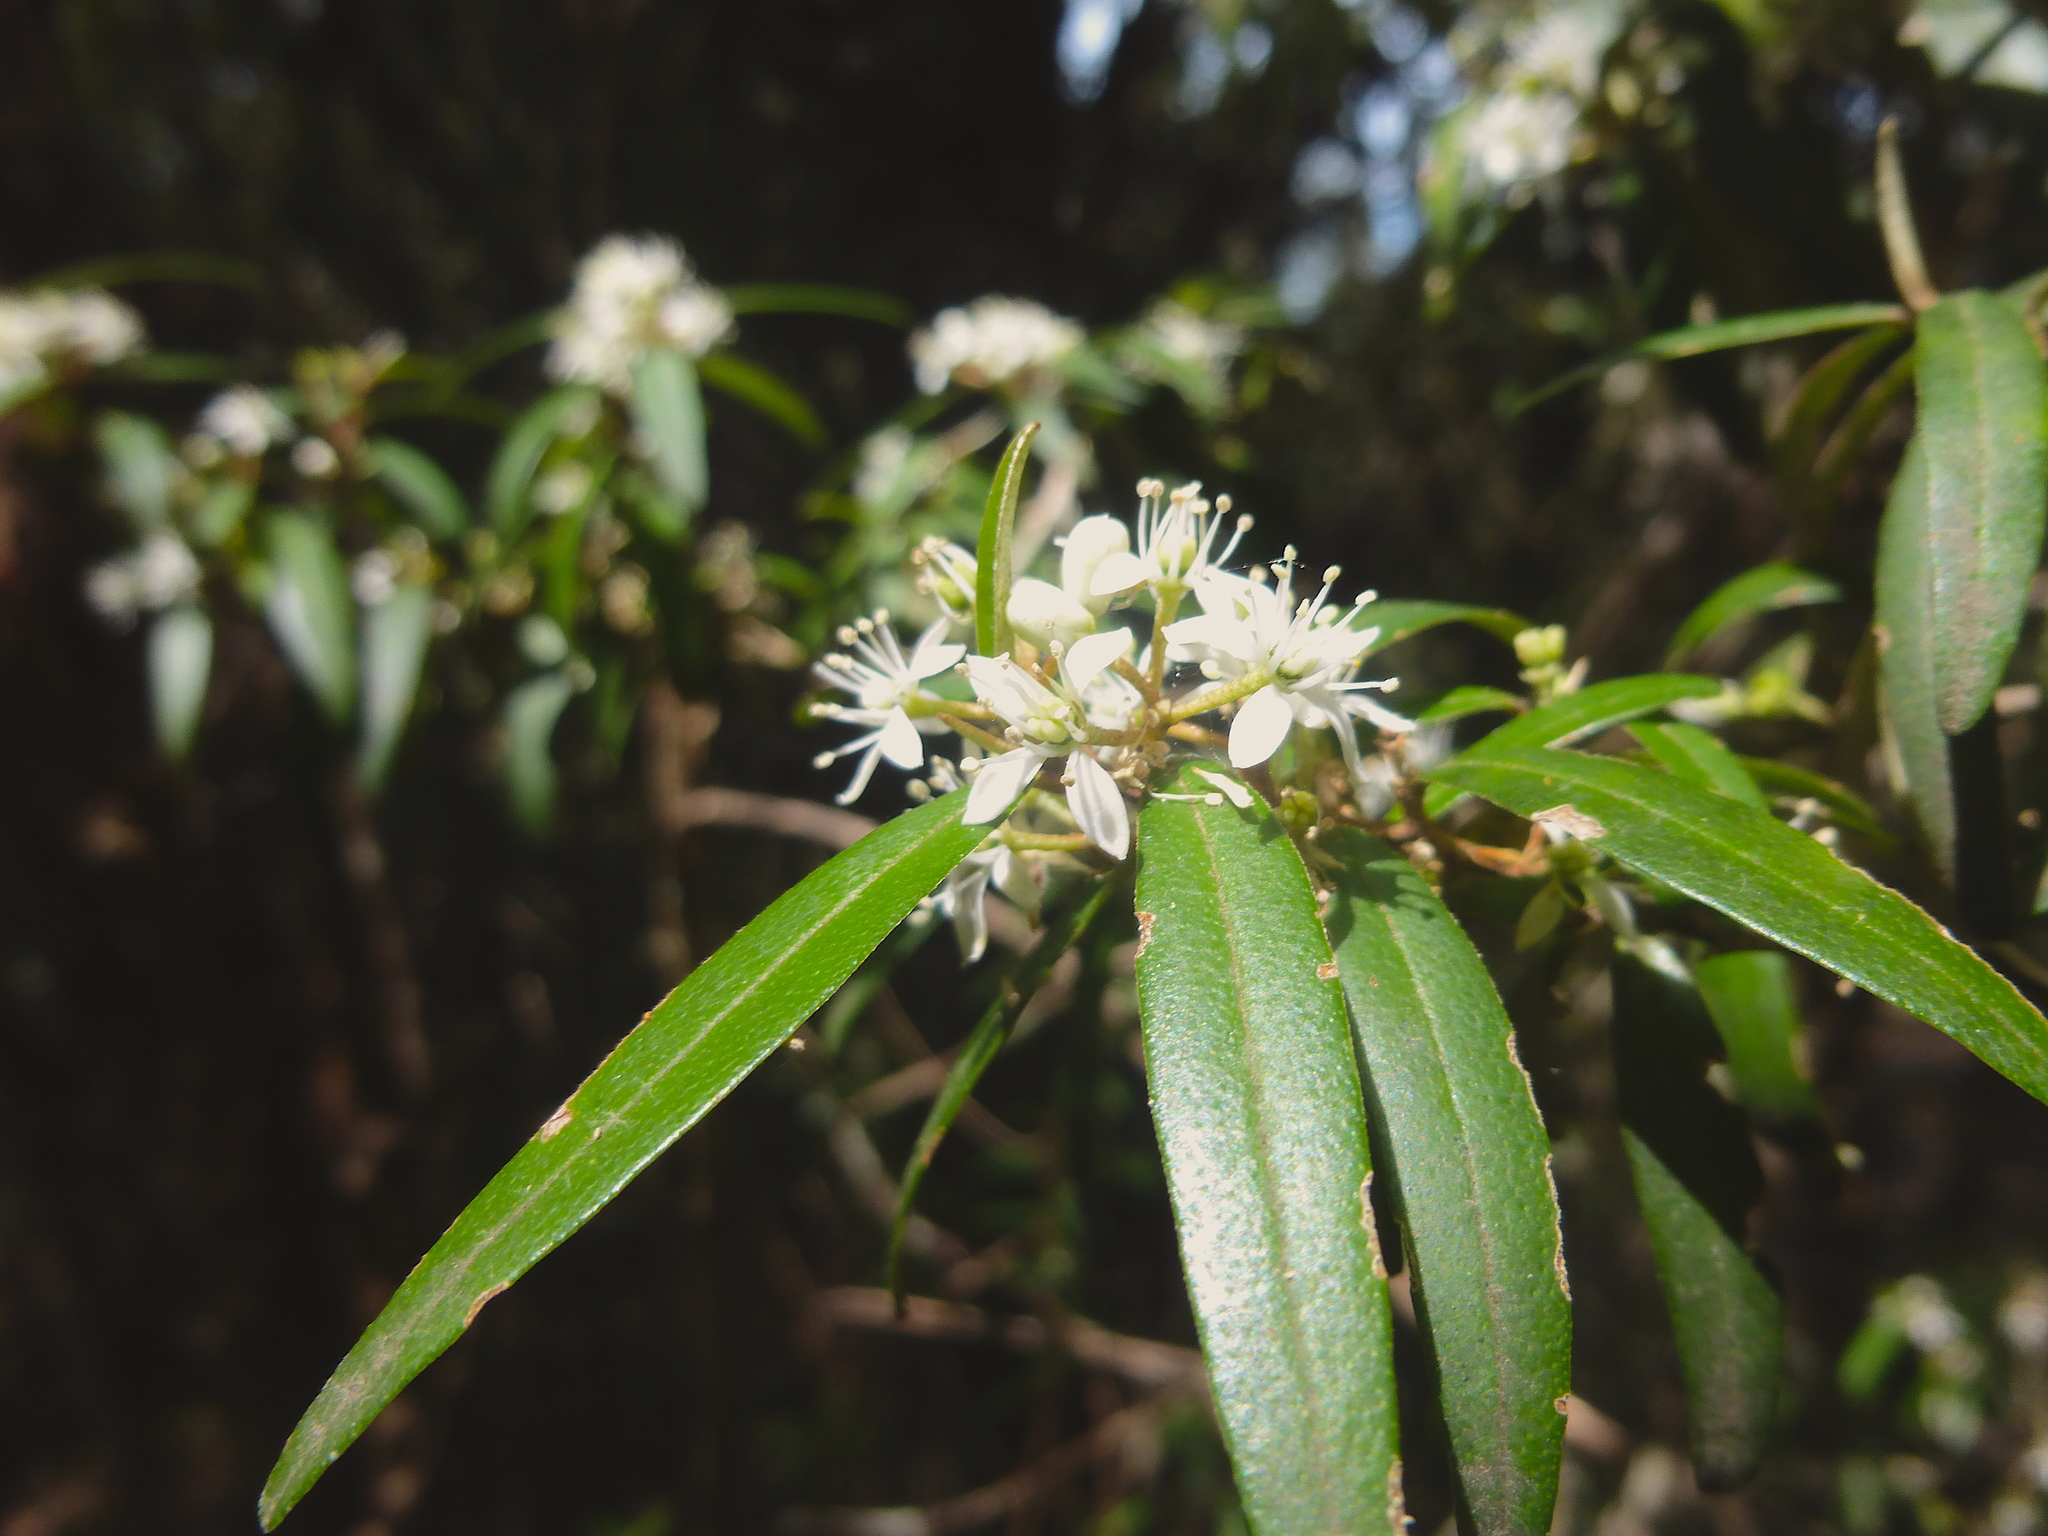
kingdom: Plantae
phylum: Tracheophyta
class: Magnoliopsida
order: Sapindales
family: Rutaceae
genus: Nematolepis
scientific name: Nematolepis squamea
